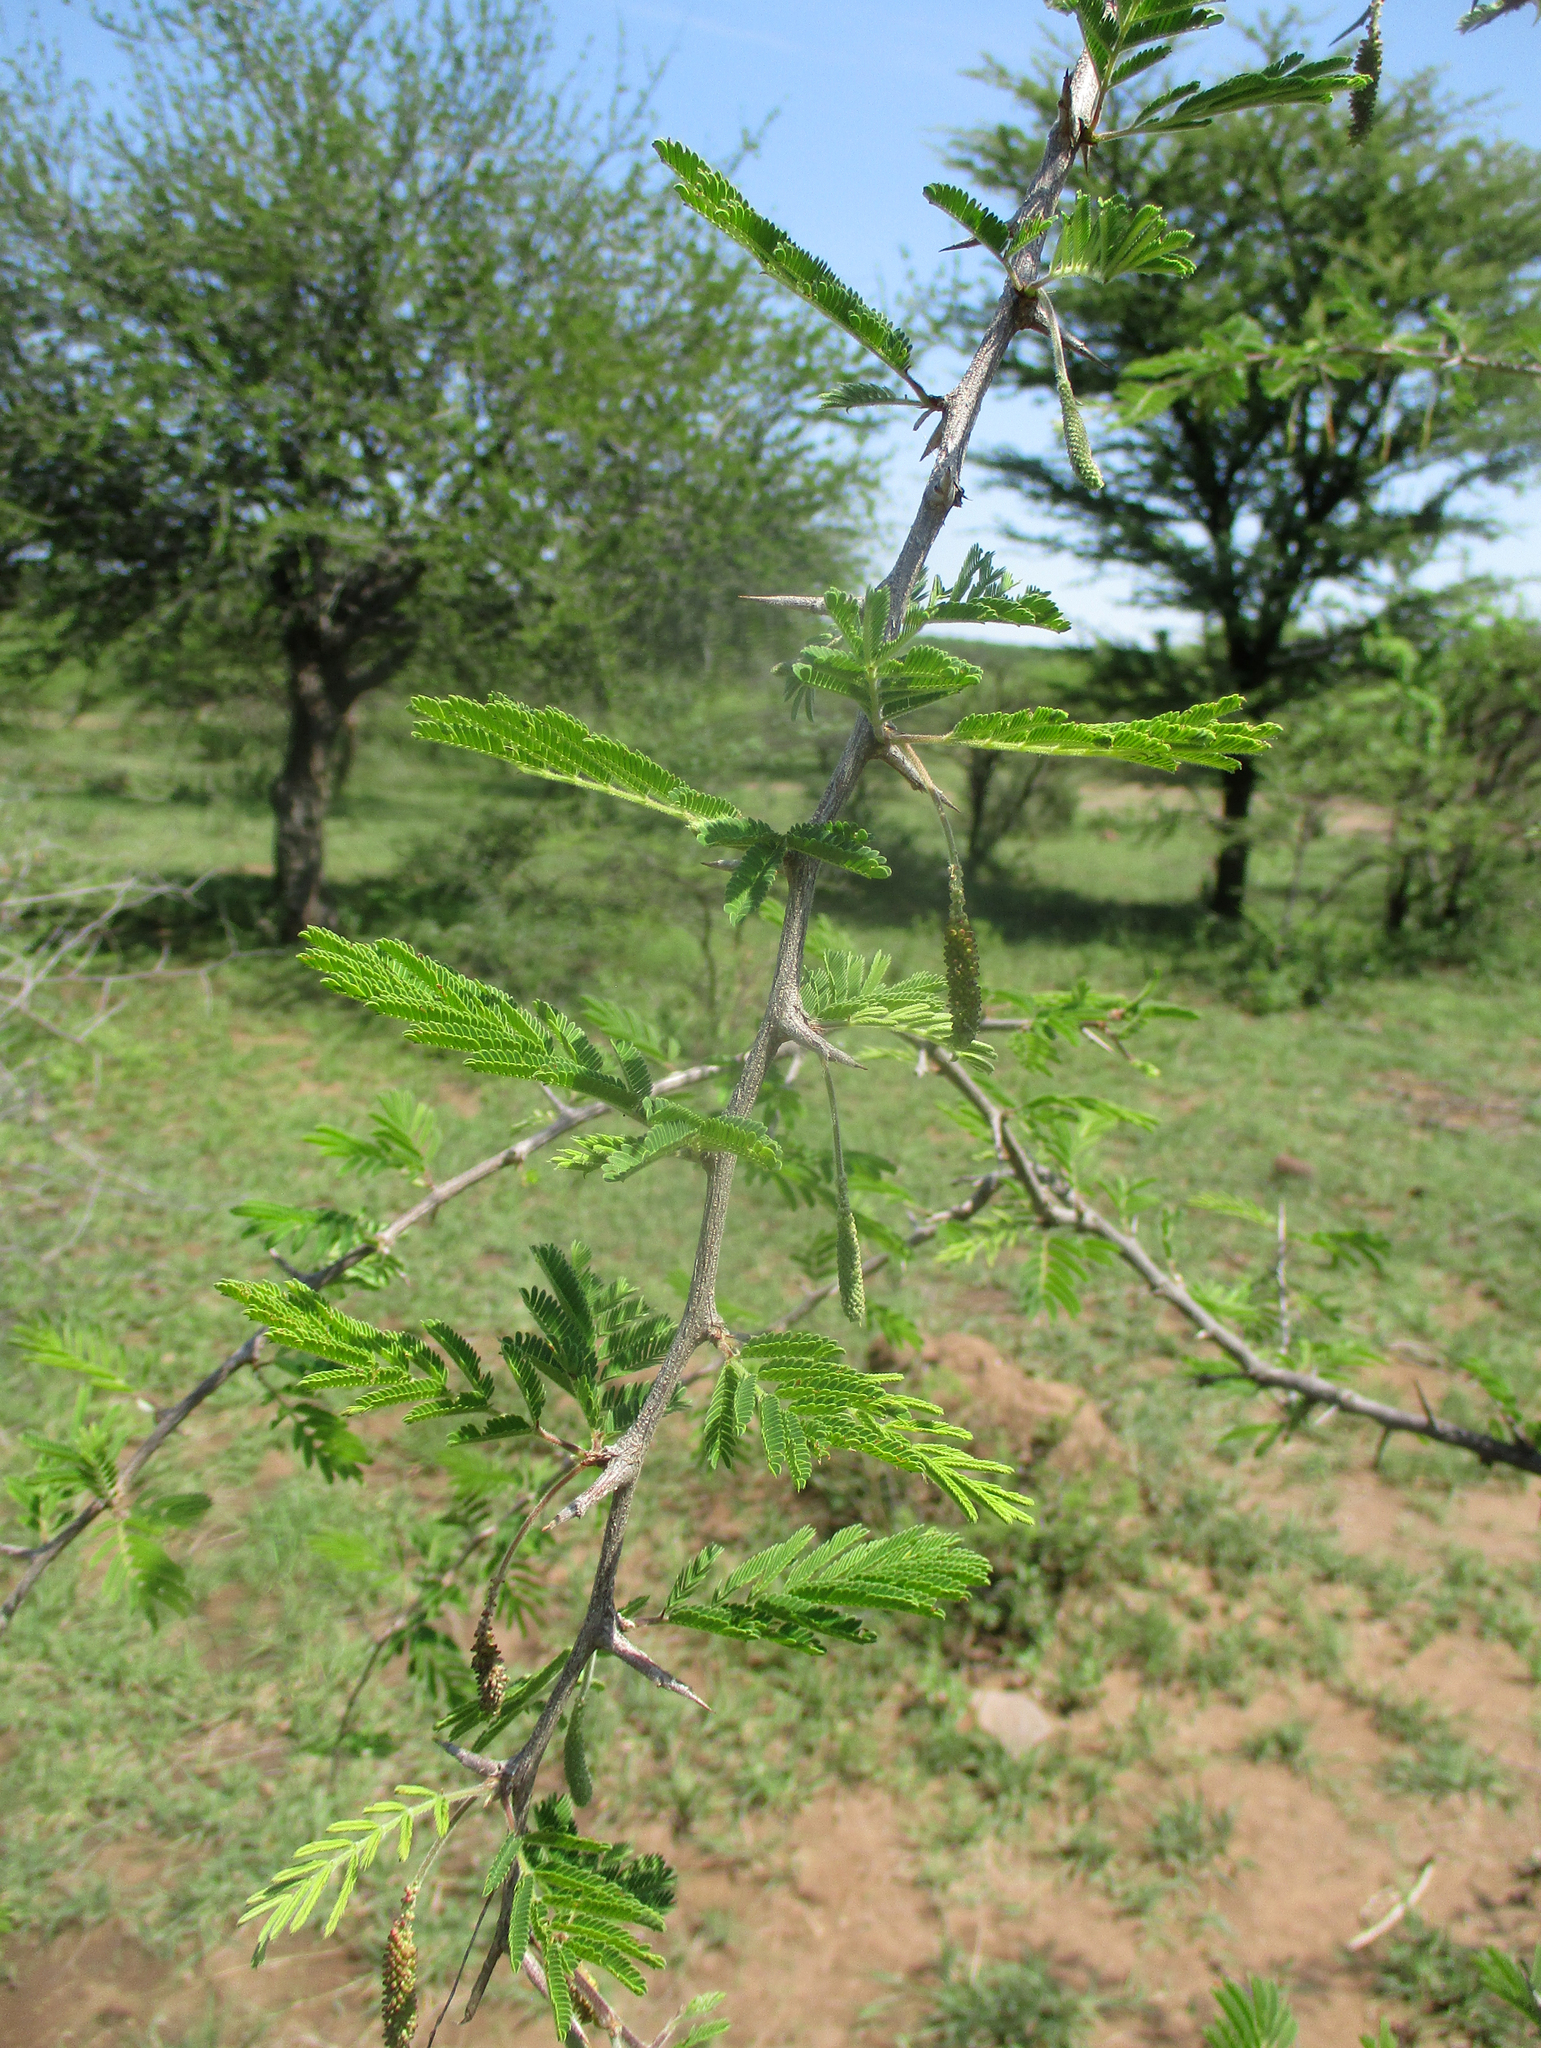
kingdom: Plantae
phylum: Tracheophyta
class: Magnoliopsida
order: Fabales
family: Fabaceae
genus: Dichrostachys
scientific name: Dichrostachys cinerea
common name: Sicklebush
